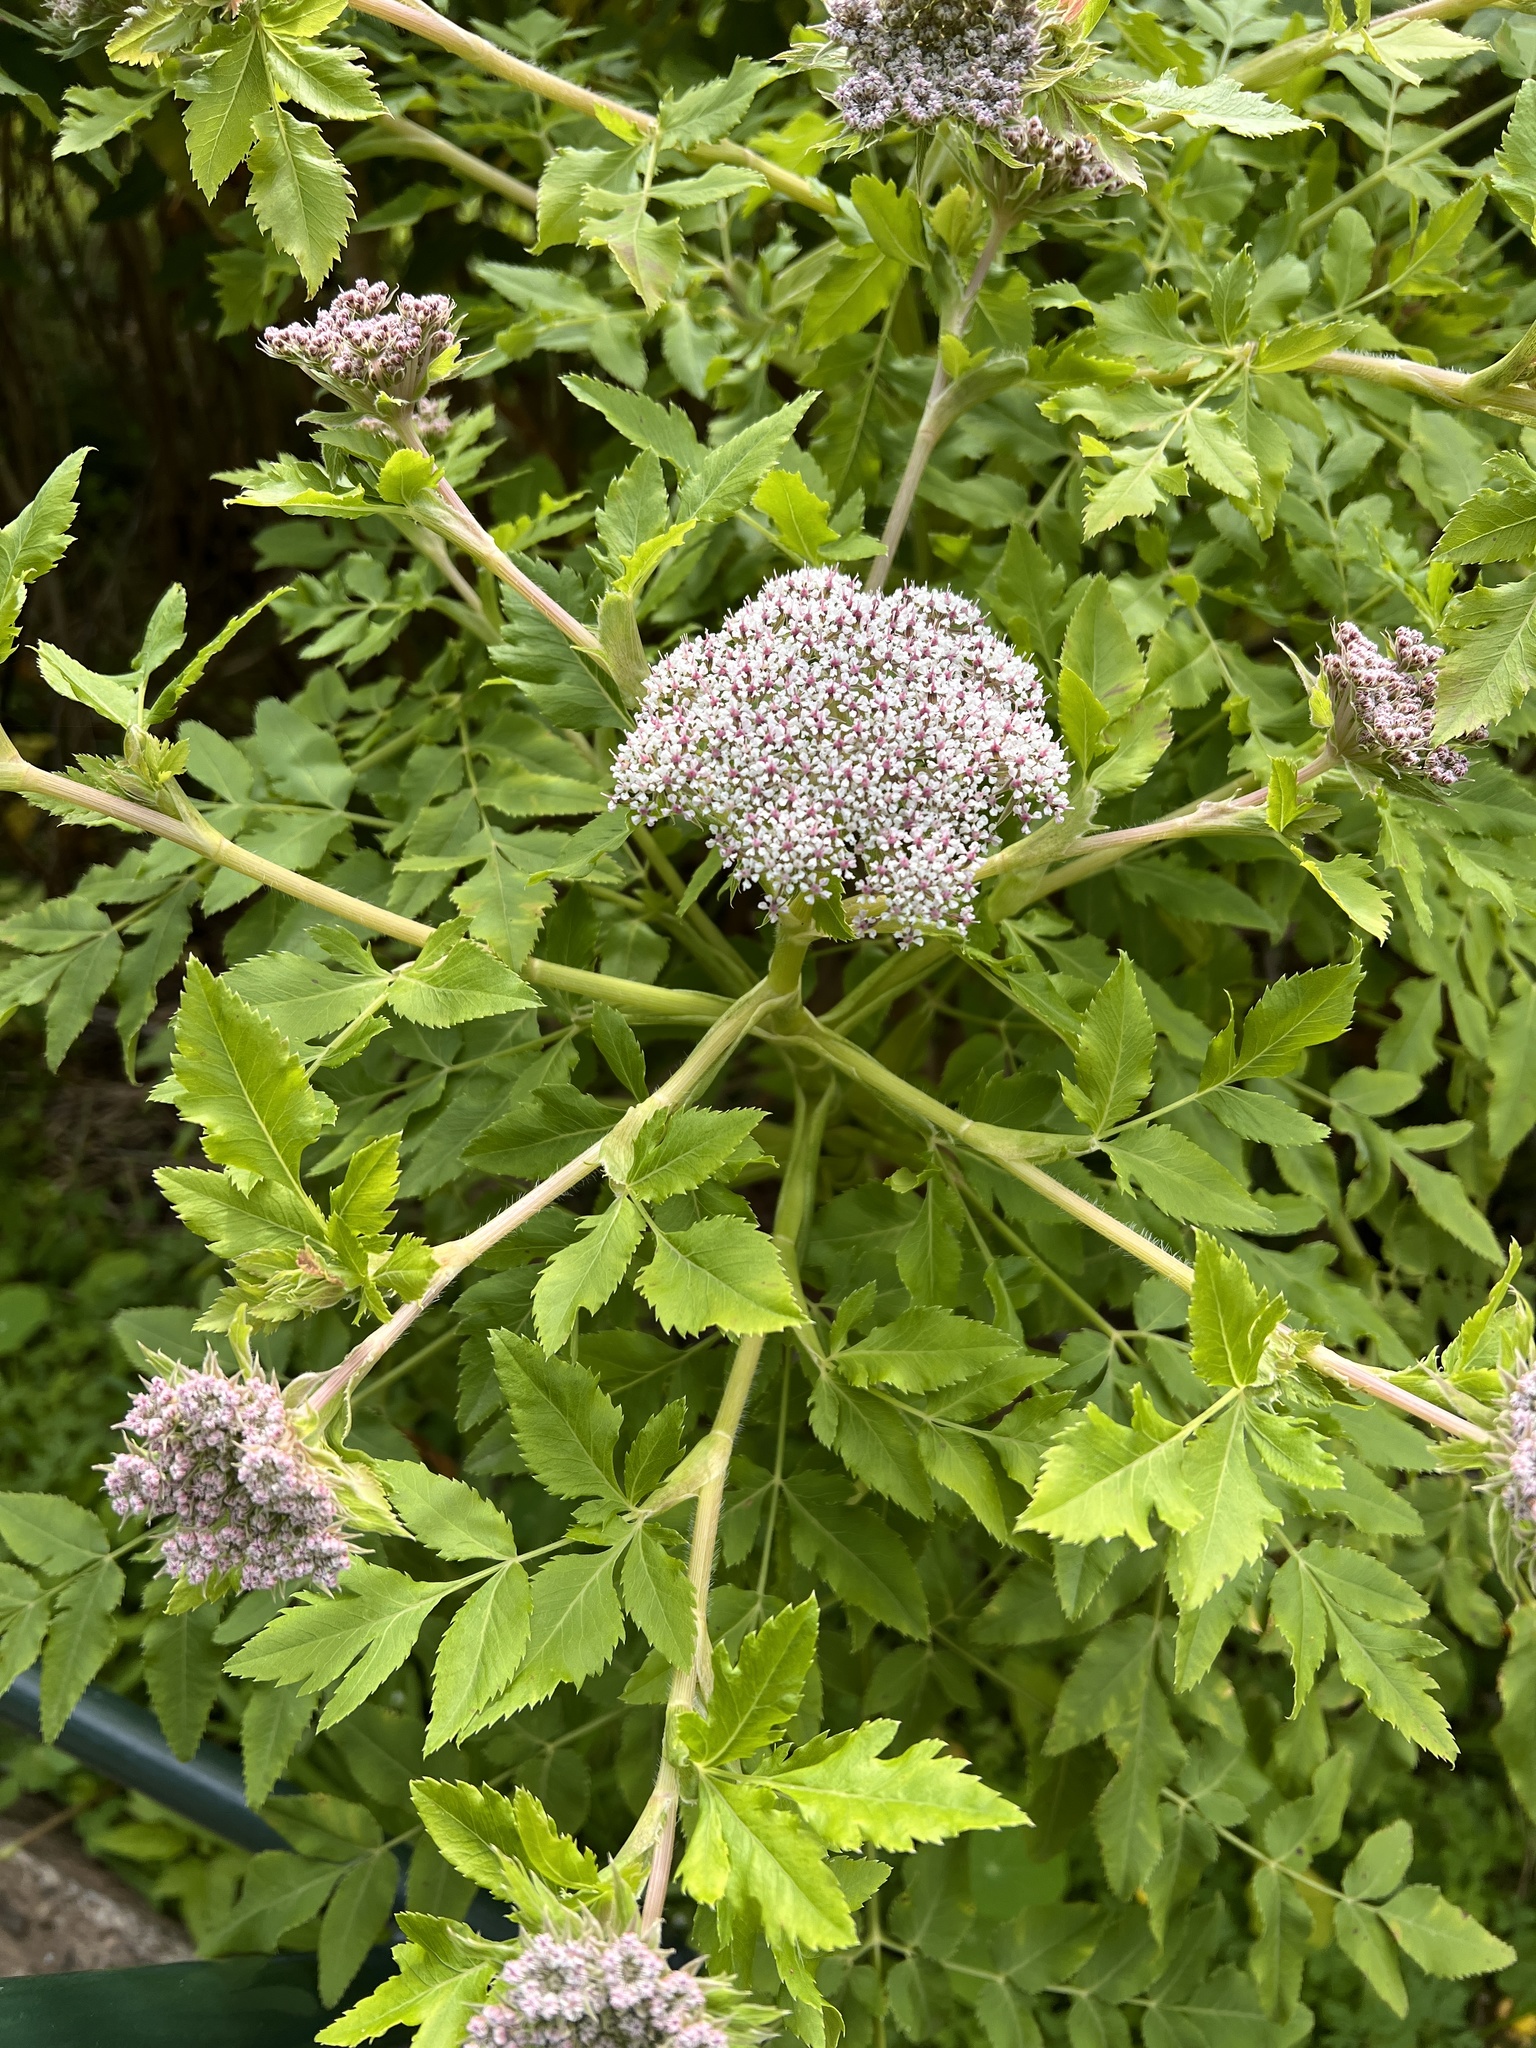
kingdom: Plantae
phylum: Tracheophyta
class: Magnoliopsida
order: Apiales
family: Apiaceae
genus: Daucus
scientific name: Daucus decipiens
